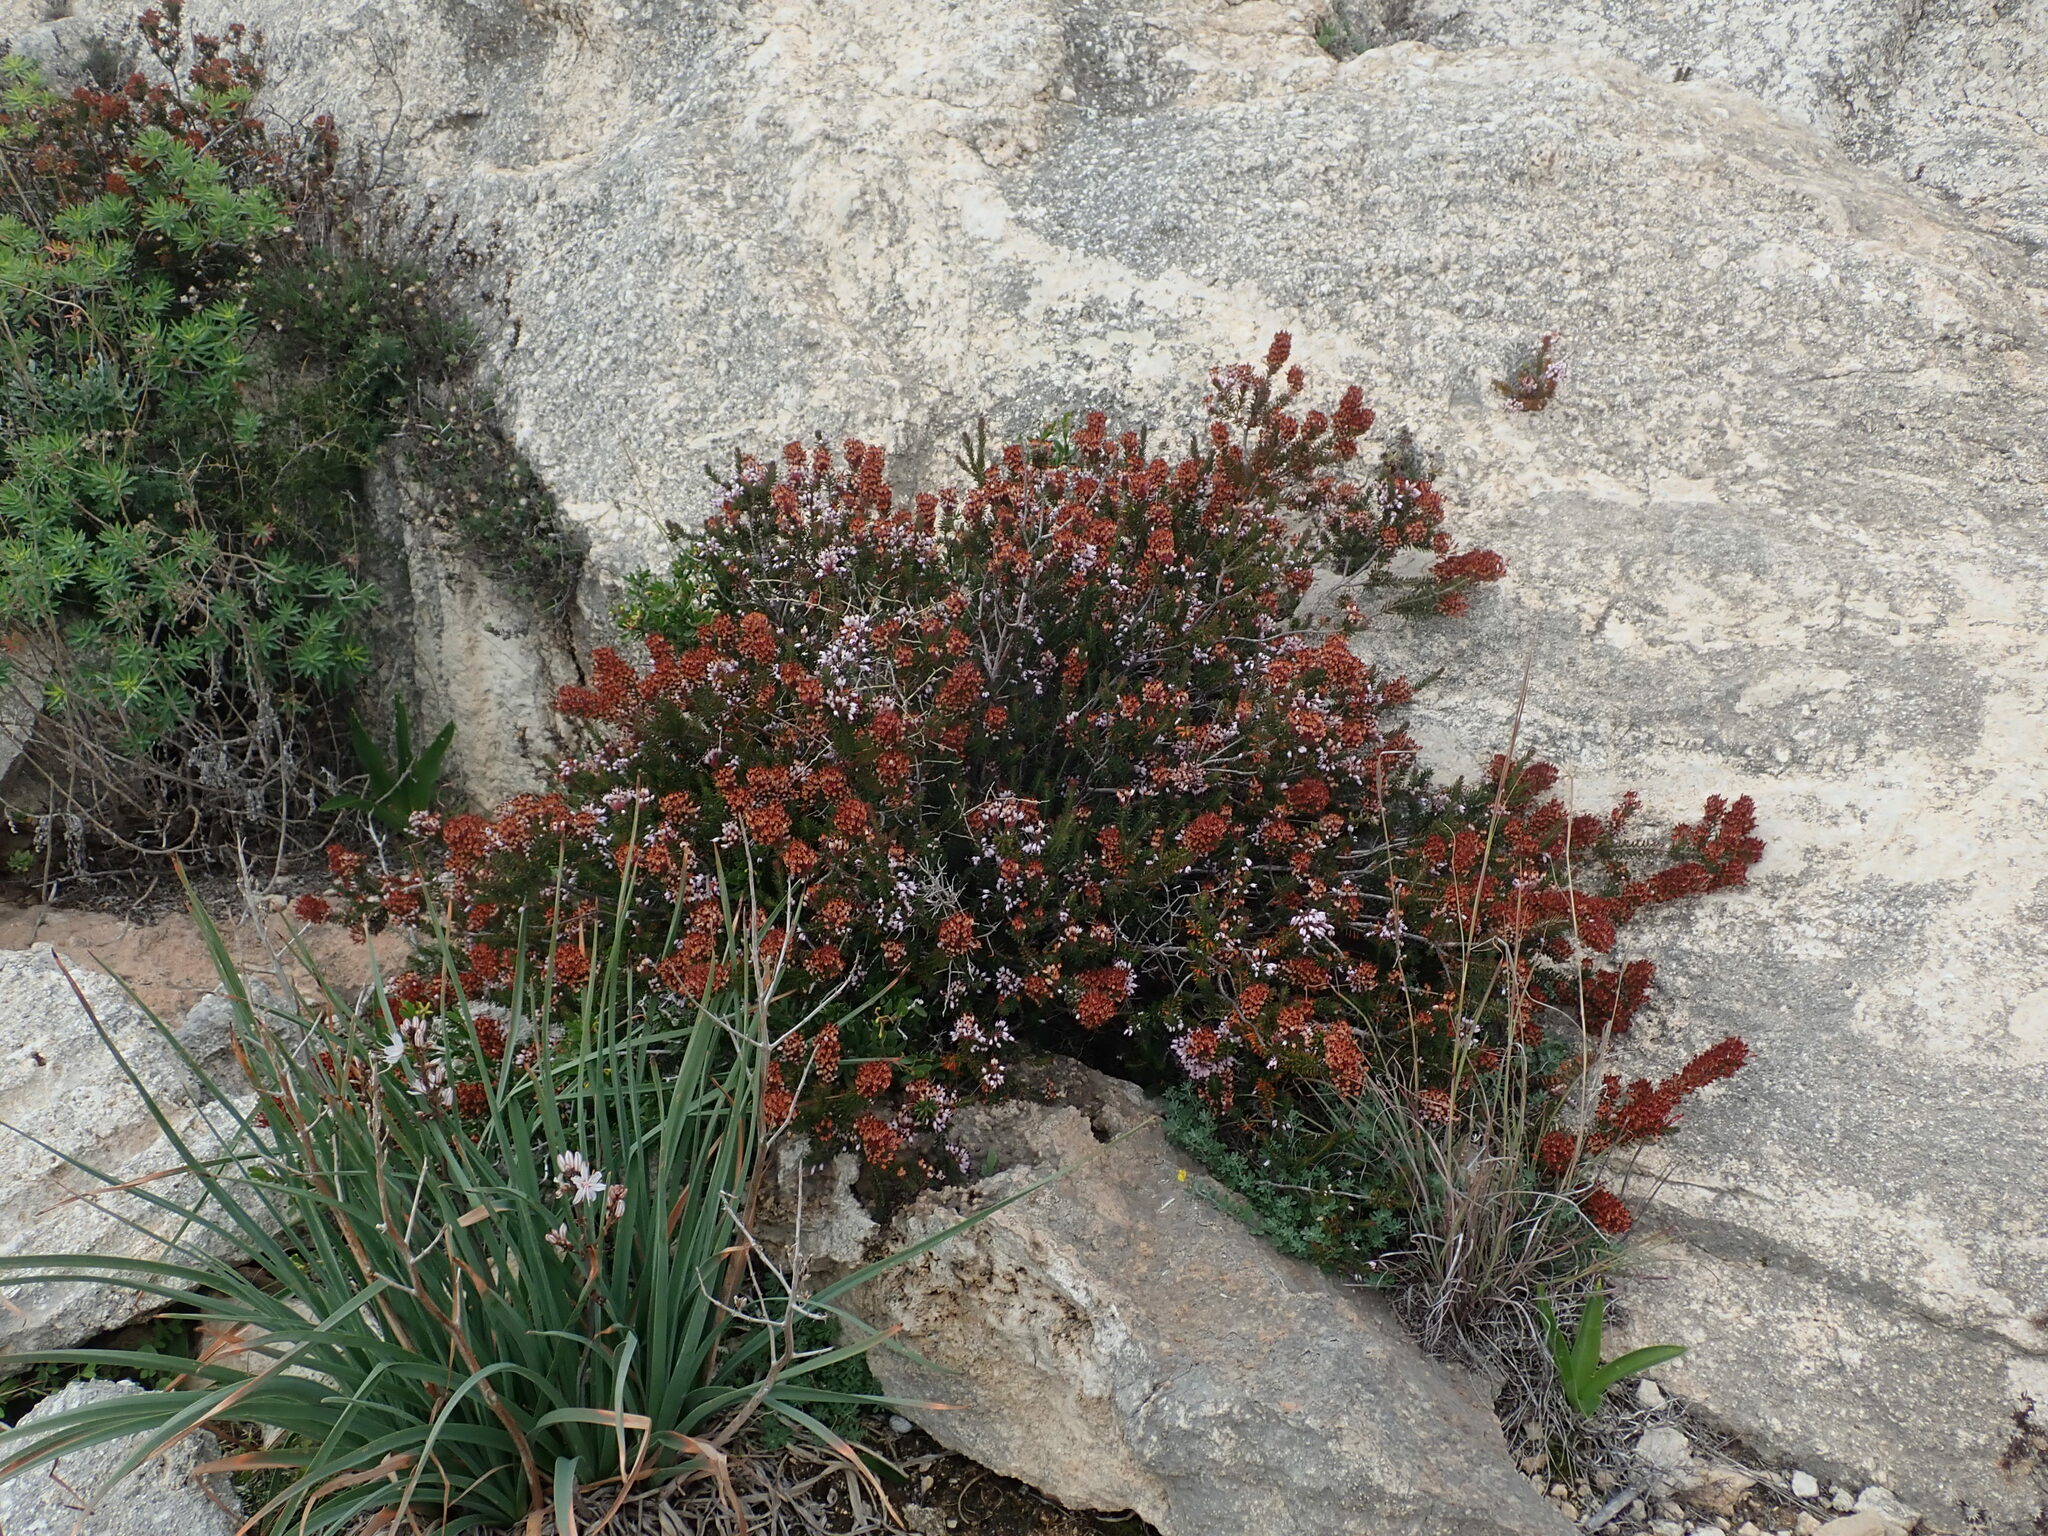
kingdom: Plantae
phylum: Tracheophyta
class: Magnoliopsida
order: Ericales
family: Ericaceae
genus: Erica
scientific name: Erica multiflora
